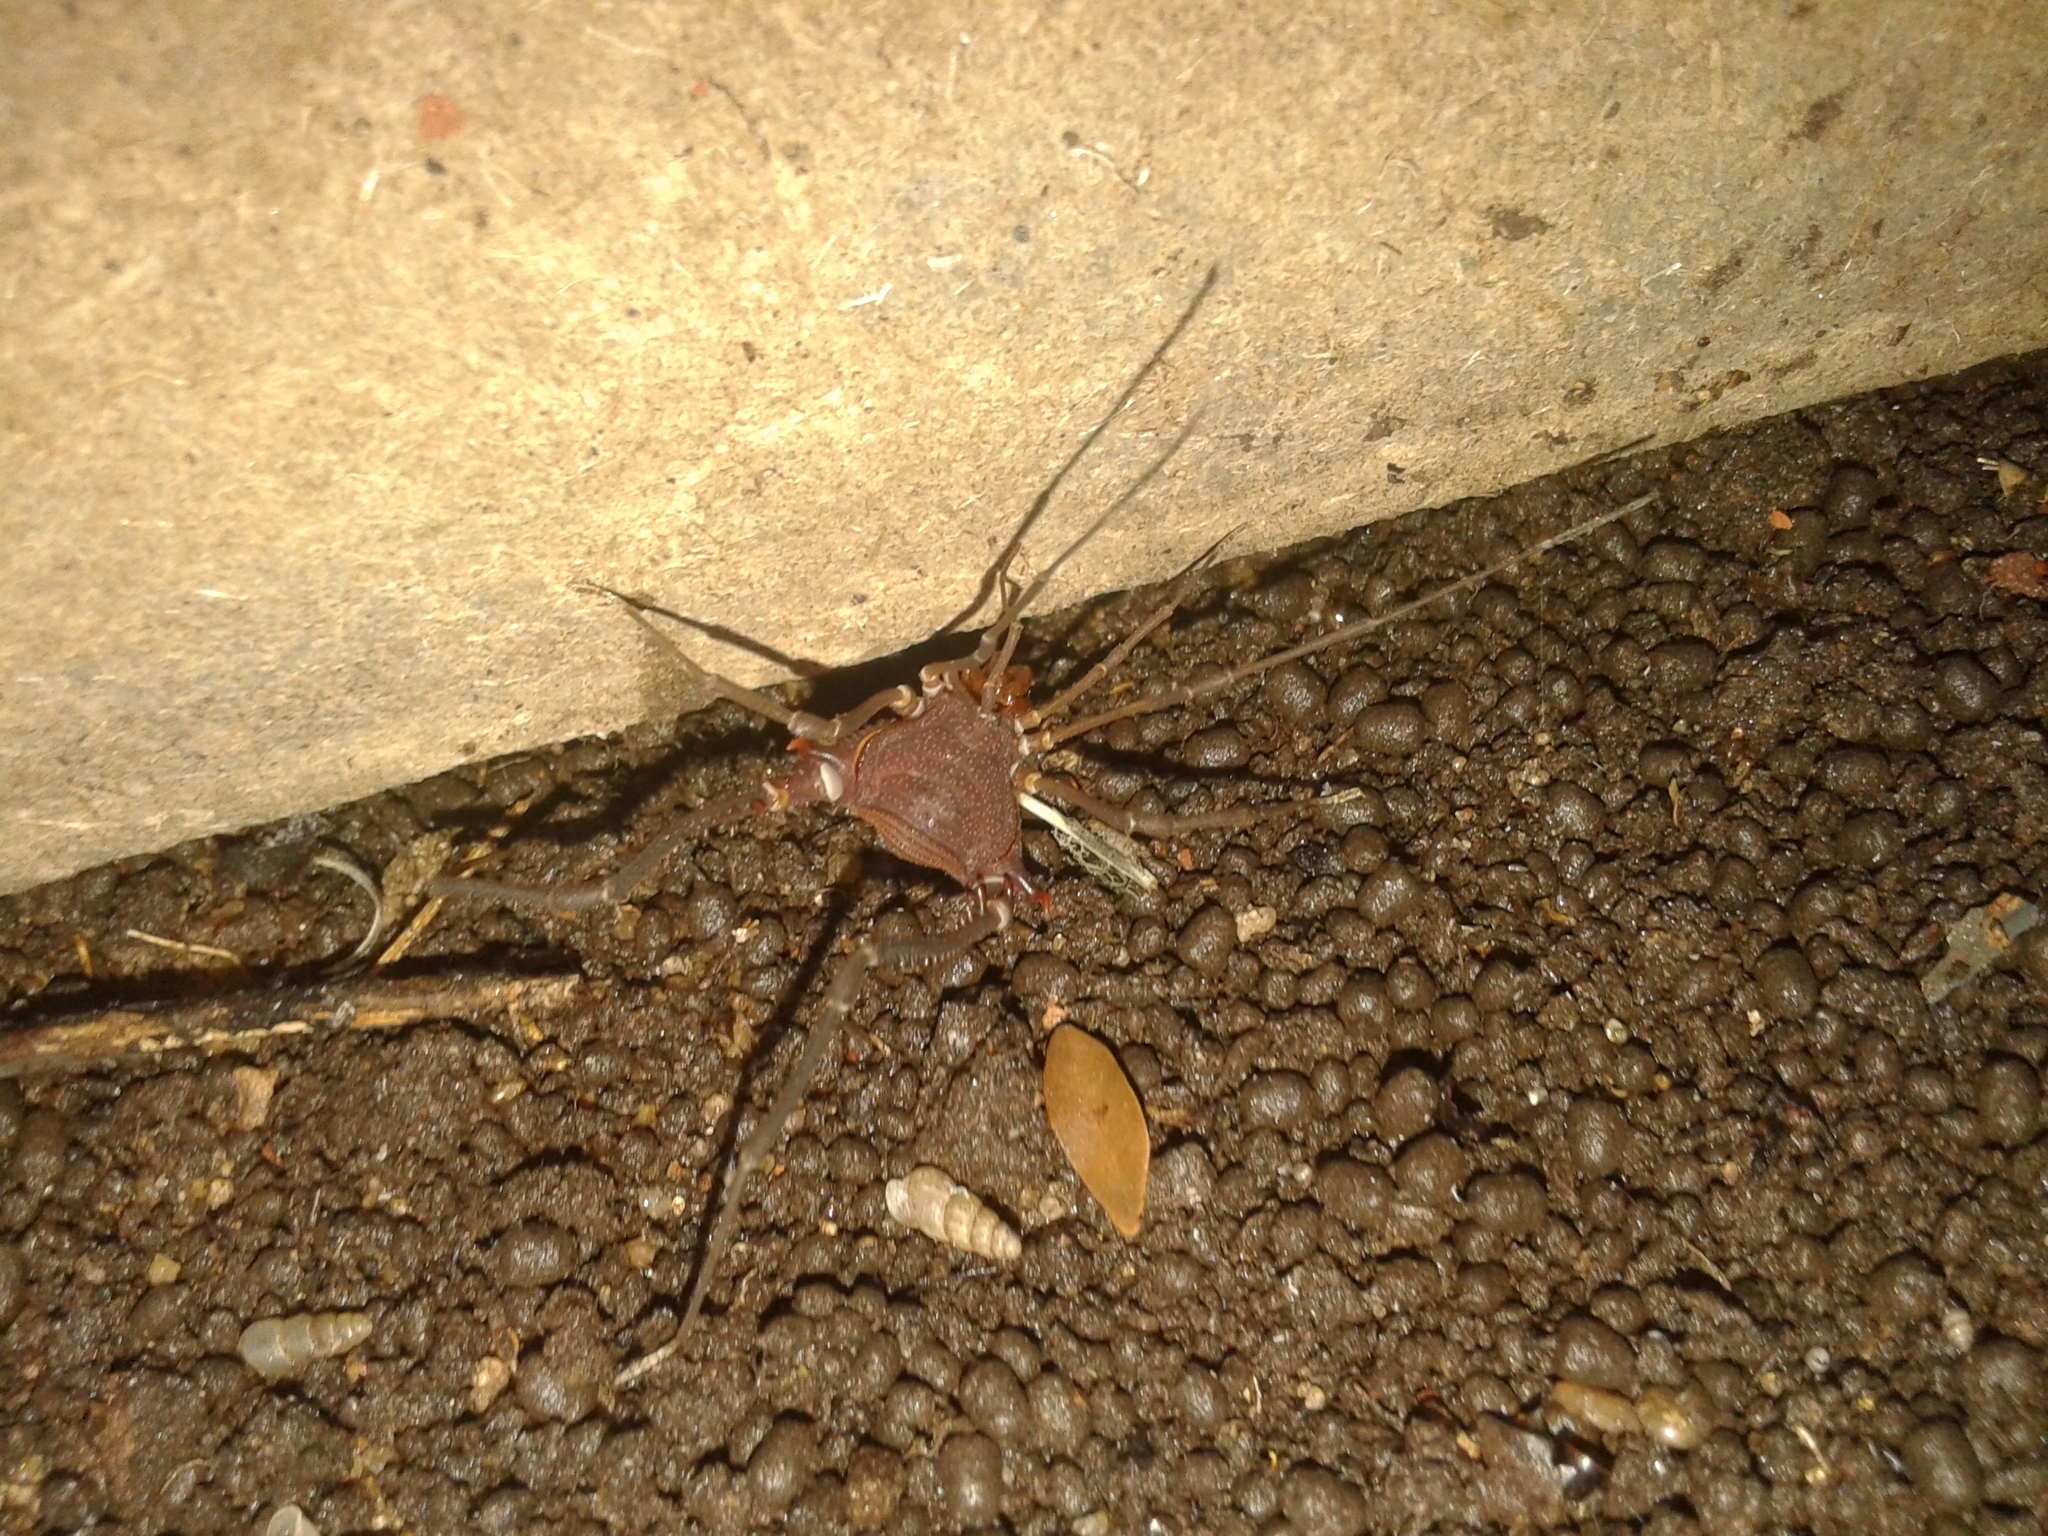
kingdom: Animalia
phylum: Arthropoda
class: Arachnida
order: Opiliones
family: Gonyleptidae
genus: Discocyrtanus
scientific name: Discocyrtanus pertenuis
